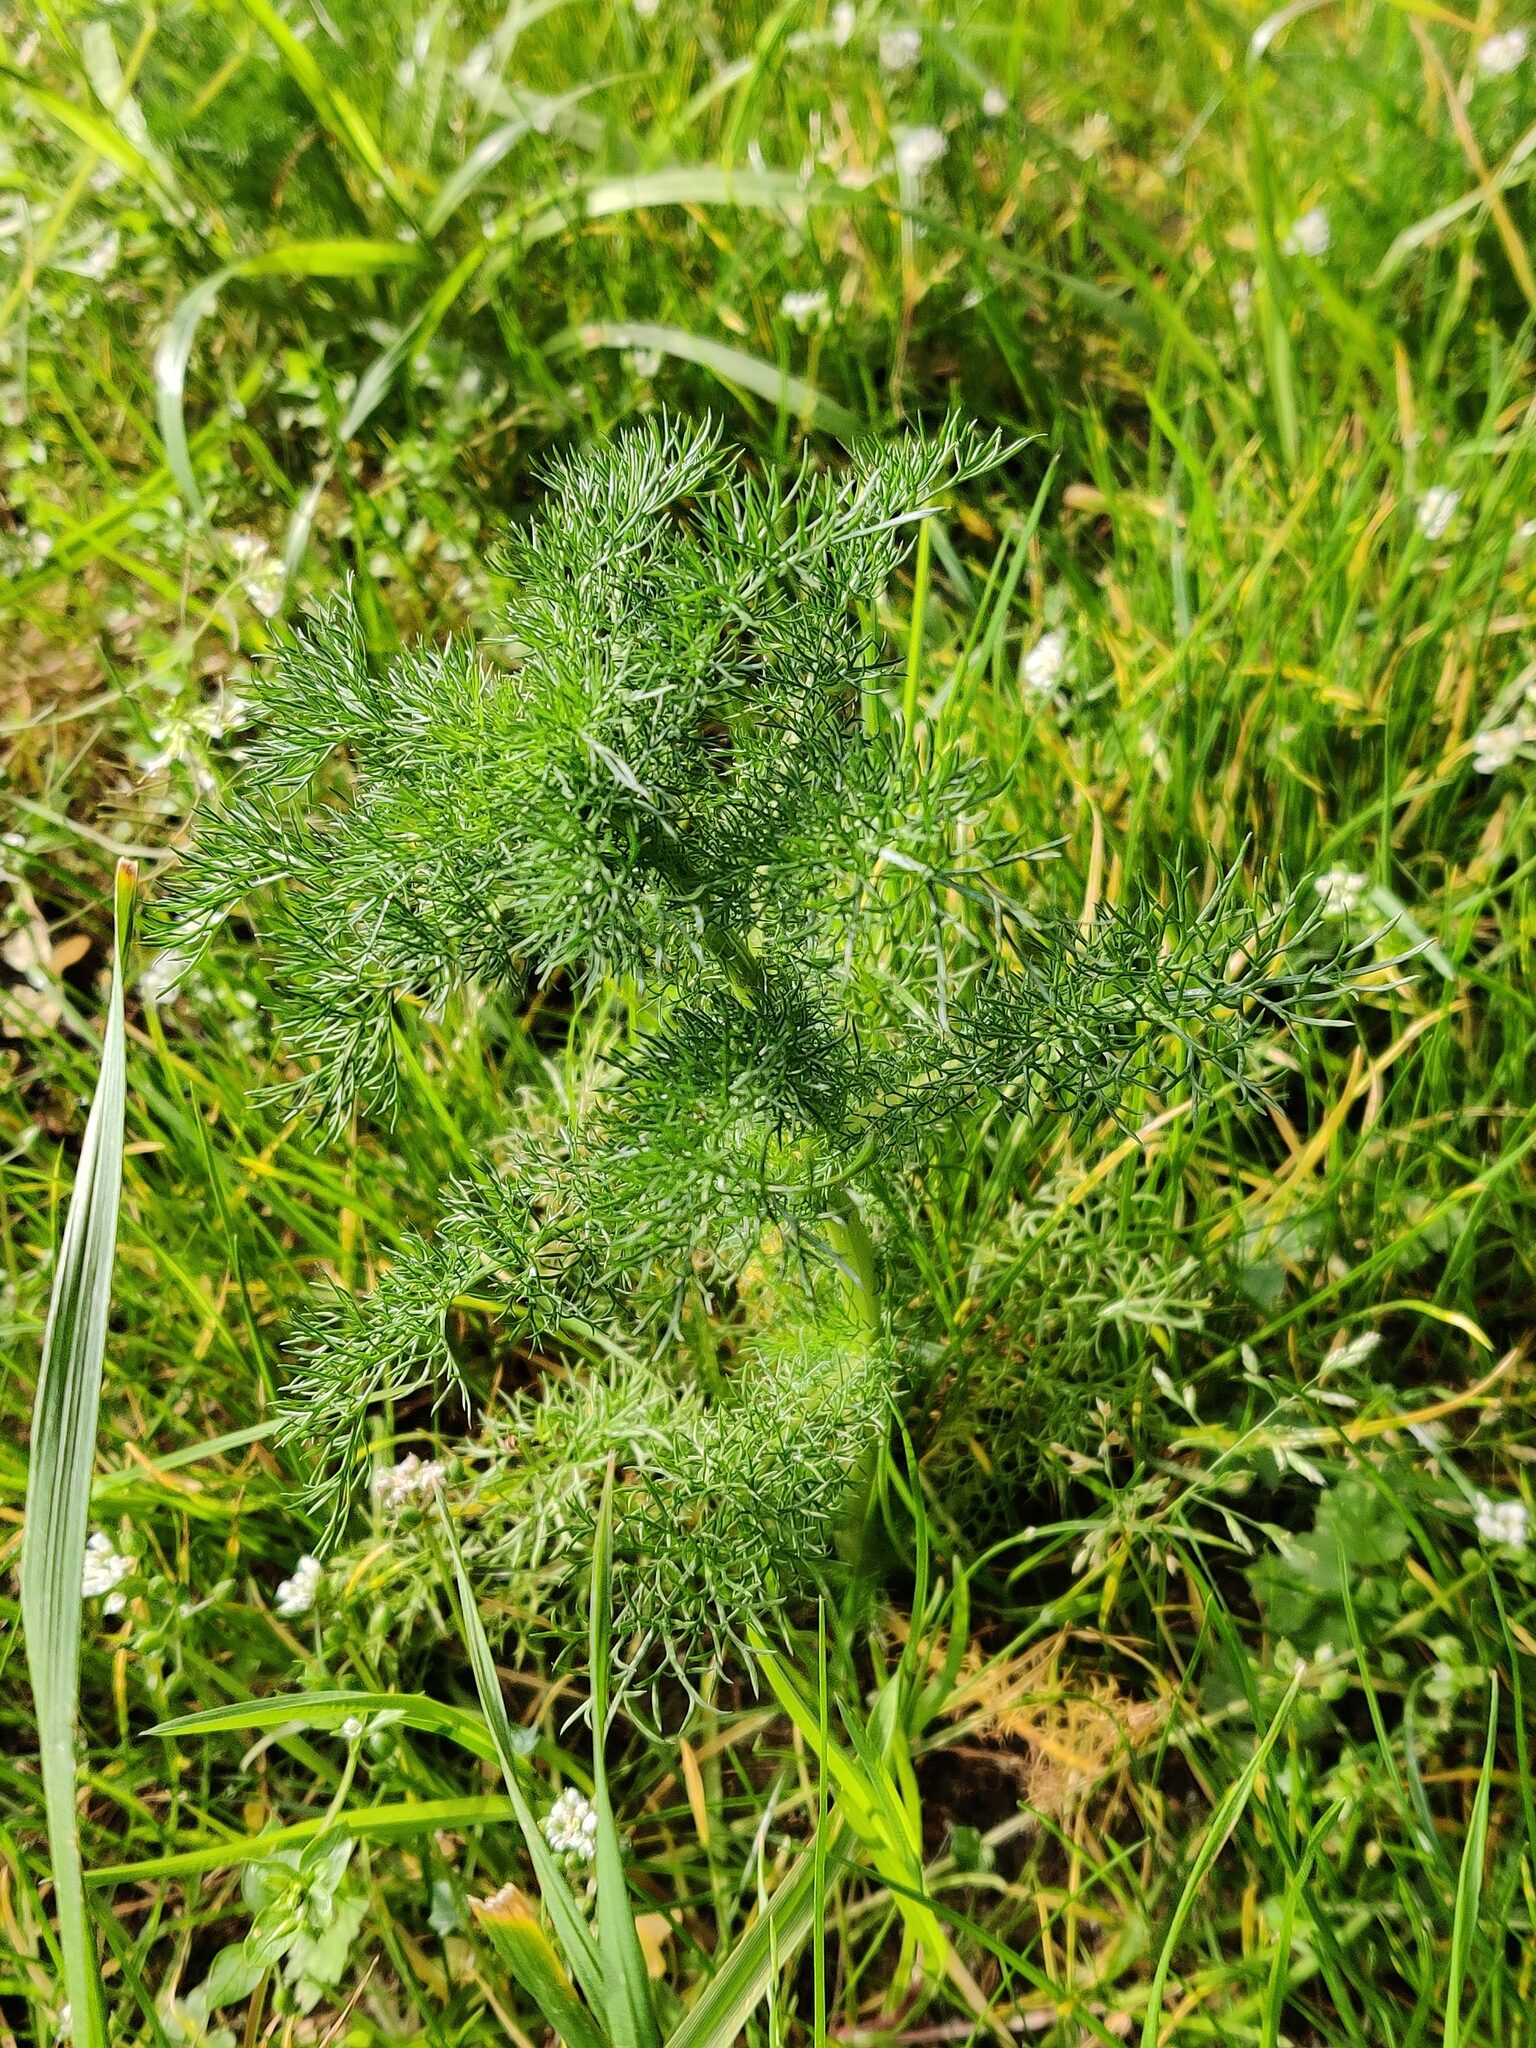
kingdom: Plantae
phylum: Tracheophyta
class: Magnoliopsida
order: Asterales
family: Asteraceae
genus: Achillea
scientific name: Achillea millefolium
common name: Yarrow
